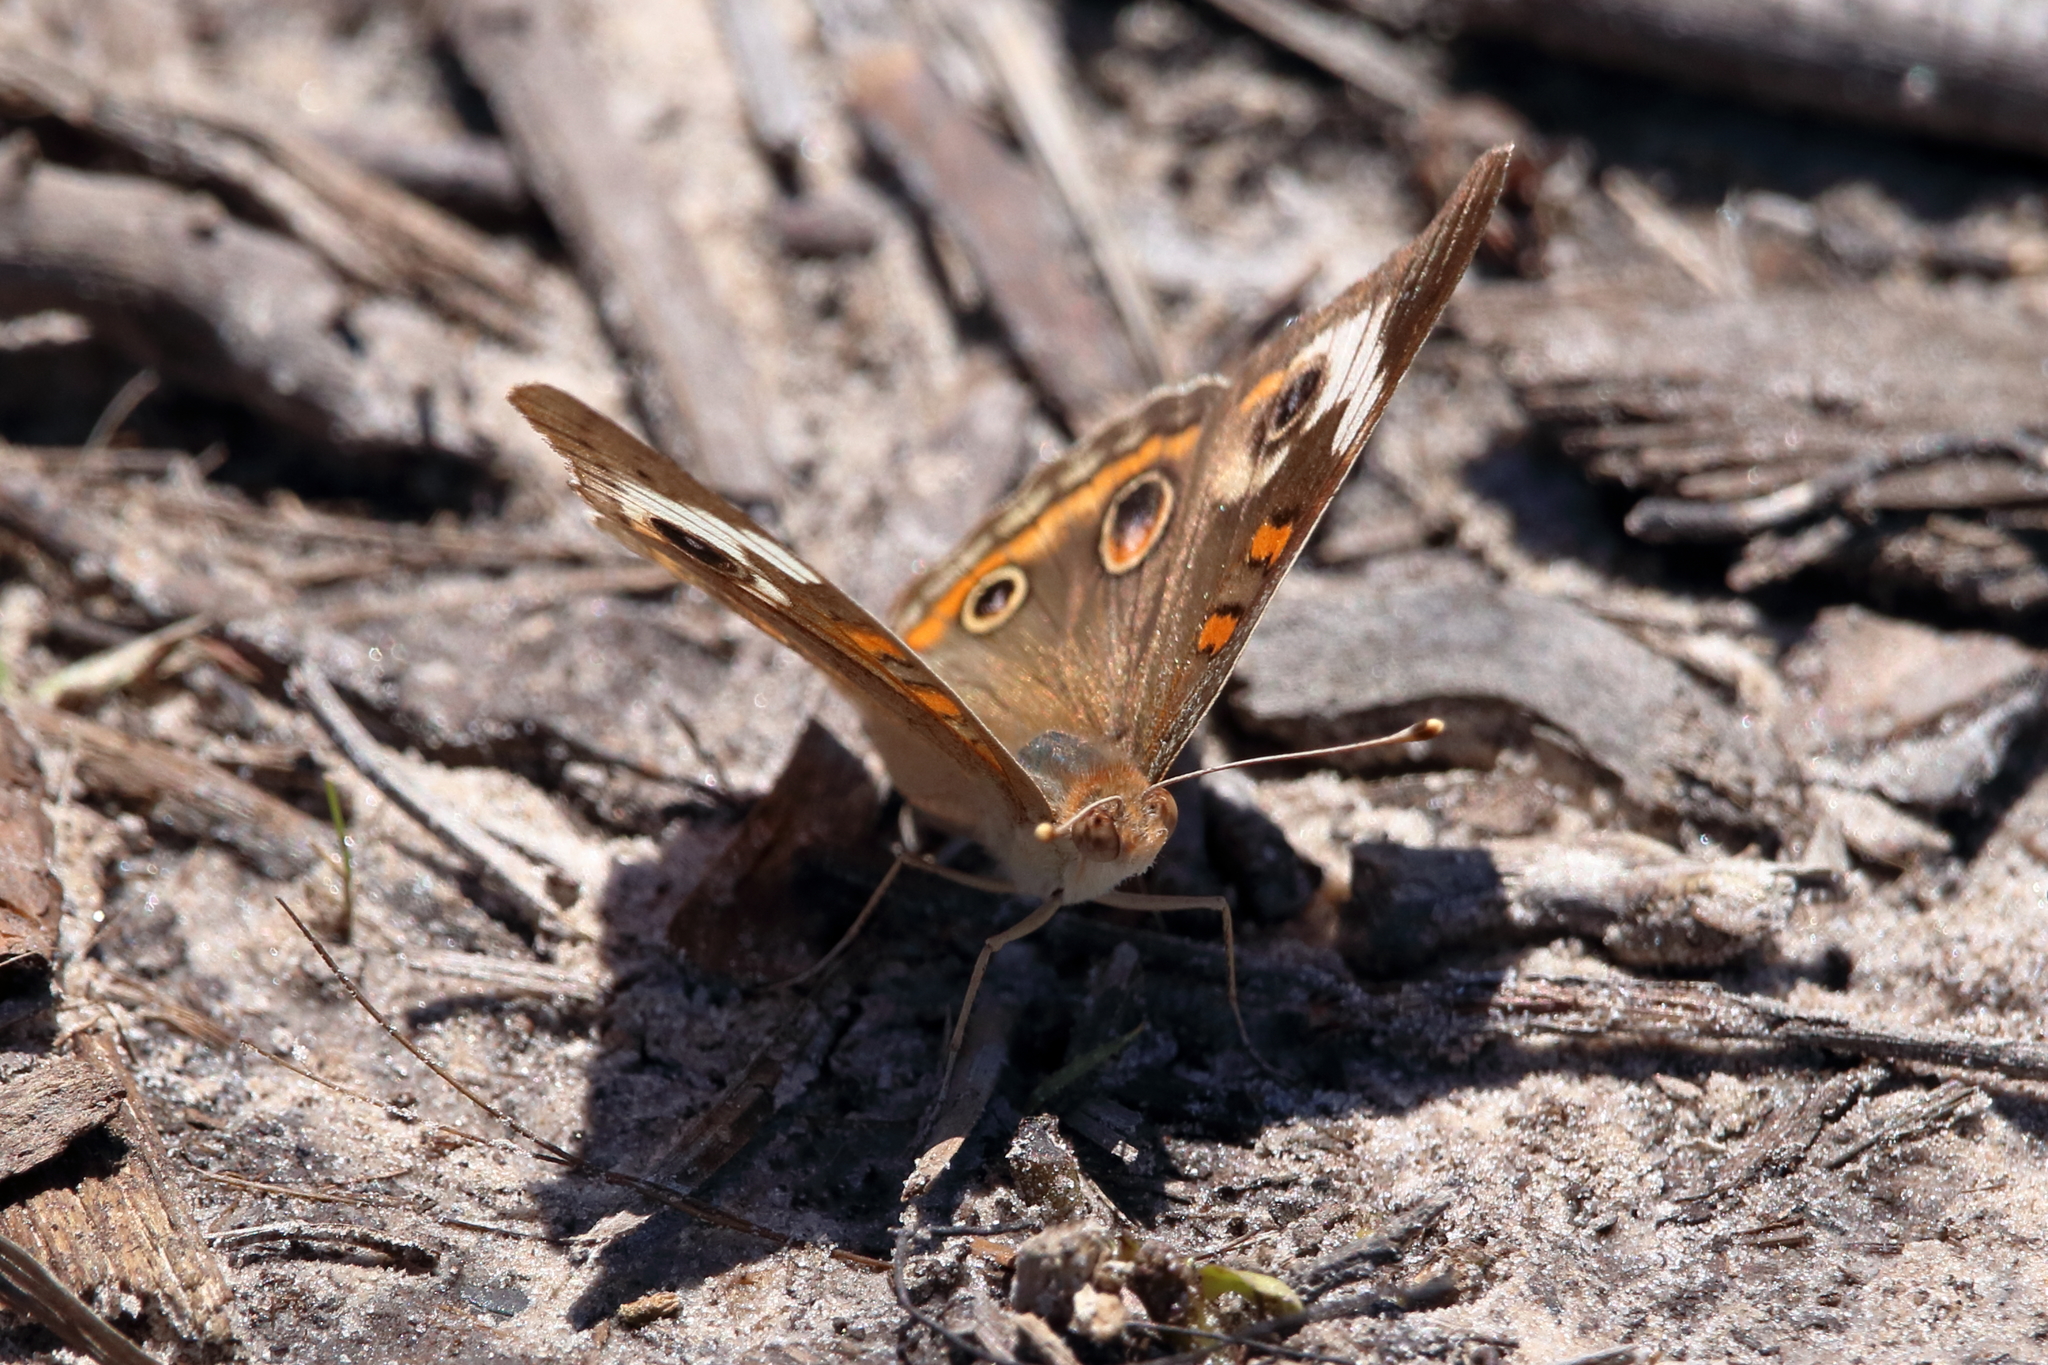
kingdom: Animalia
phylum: Arthropoda
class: Insecta
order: Lepidoptera
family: Nymphalidae
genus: Junonia
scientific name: Junonia coenia
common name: Common buckeye
